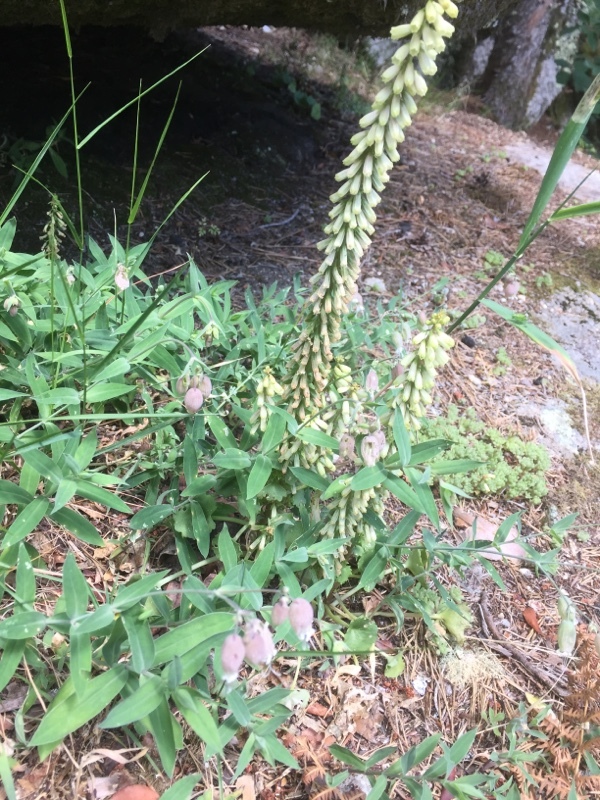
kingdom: Plantae
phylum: Tracheophyta
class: Magnoliopsida
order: Caryophyllales
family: Caryophyllaceae
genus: Silene
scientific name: Silene vulgaris
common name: Bladder campion
